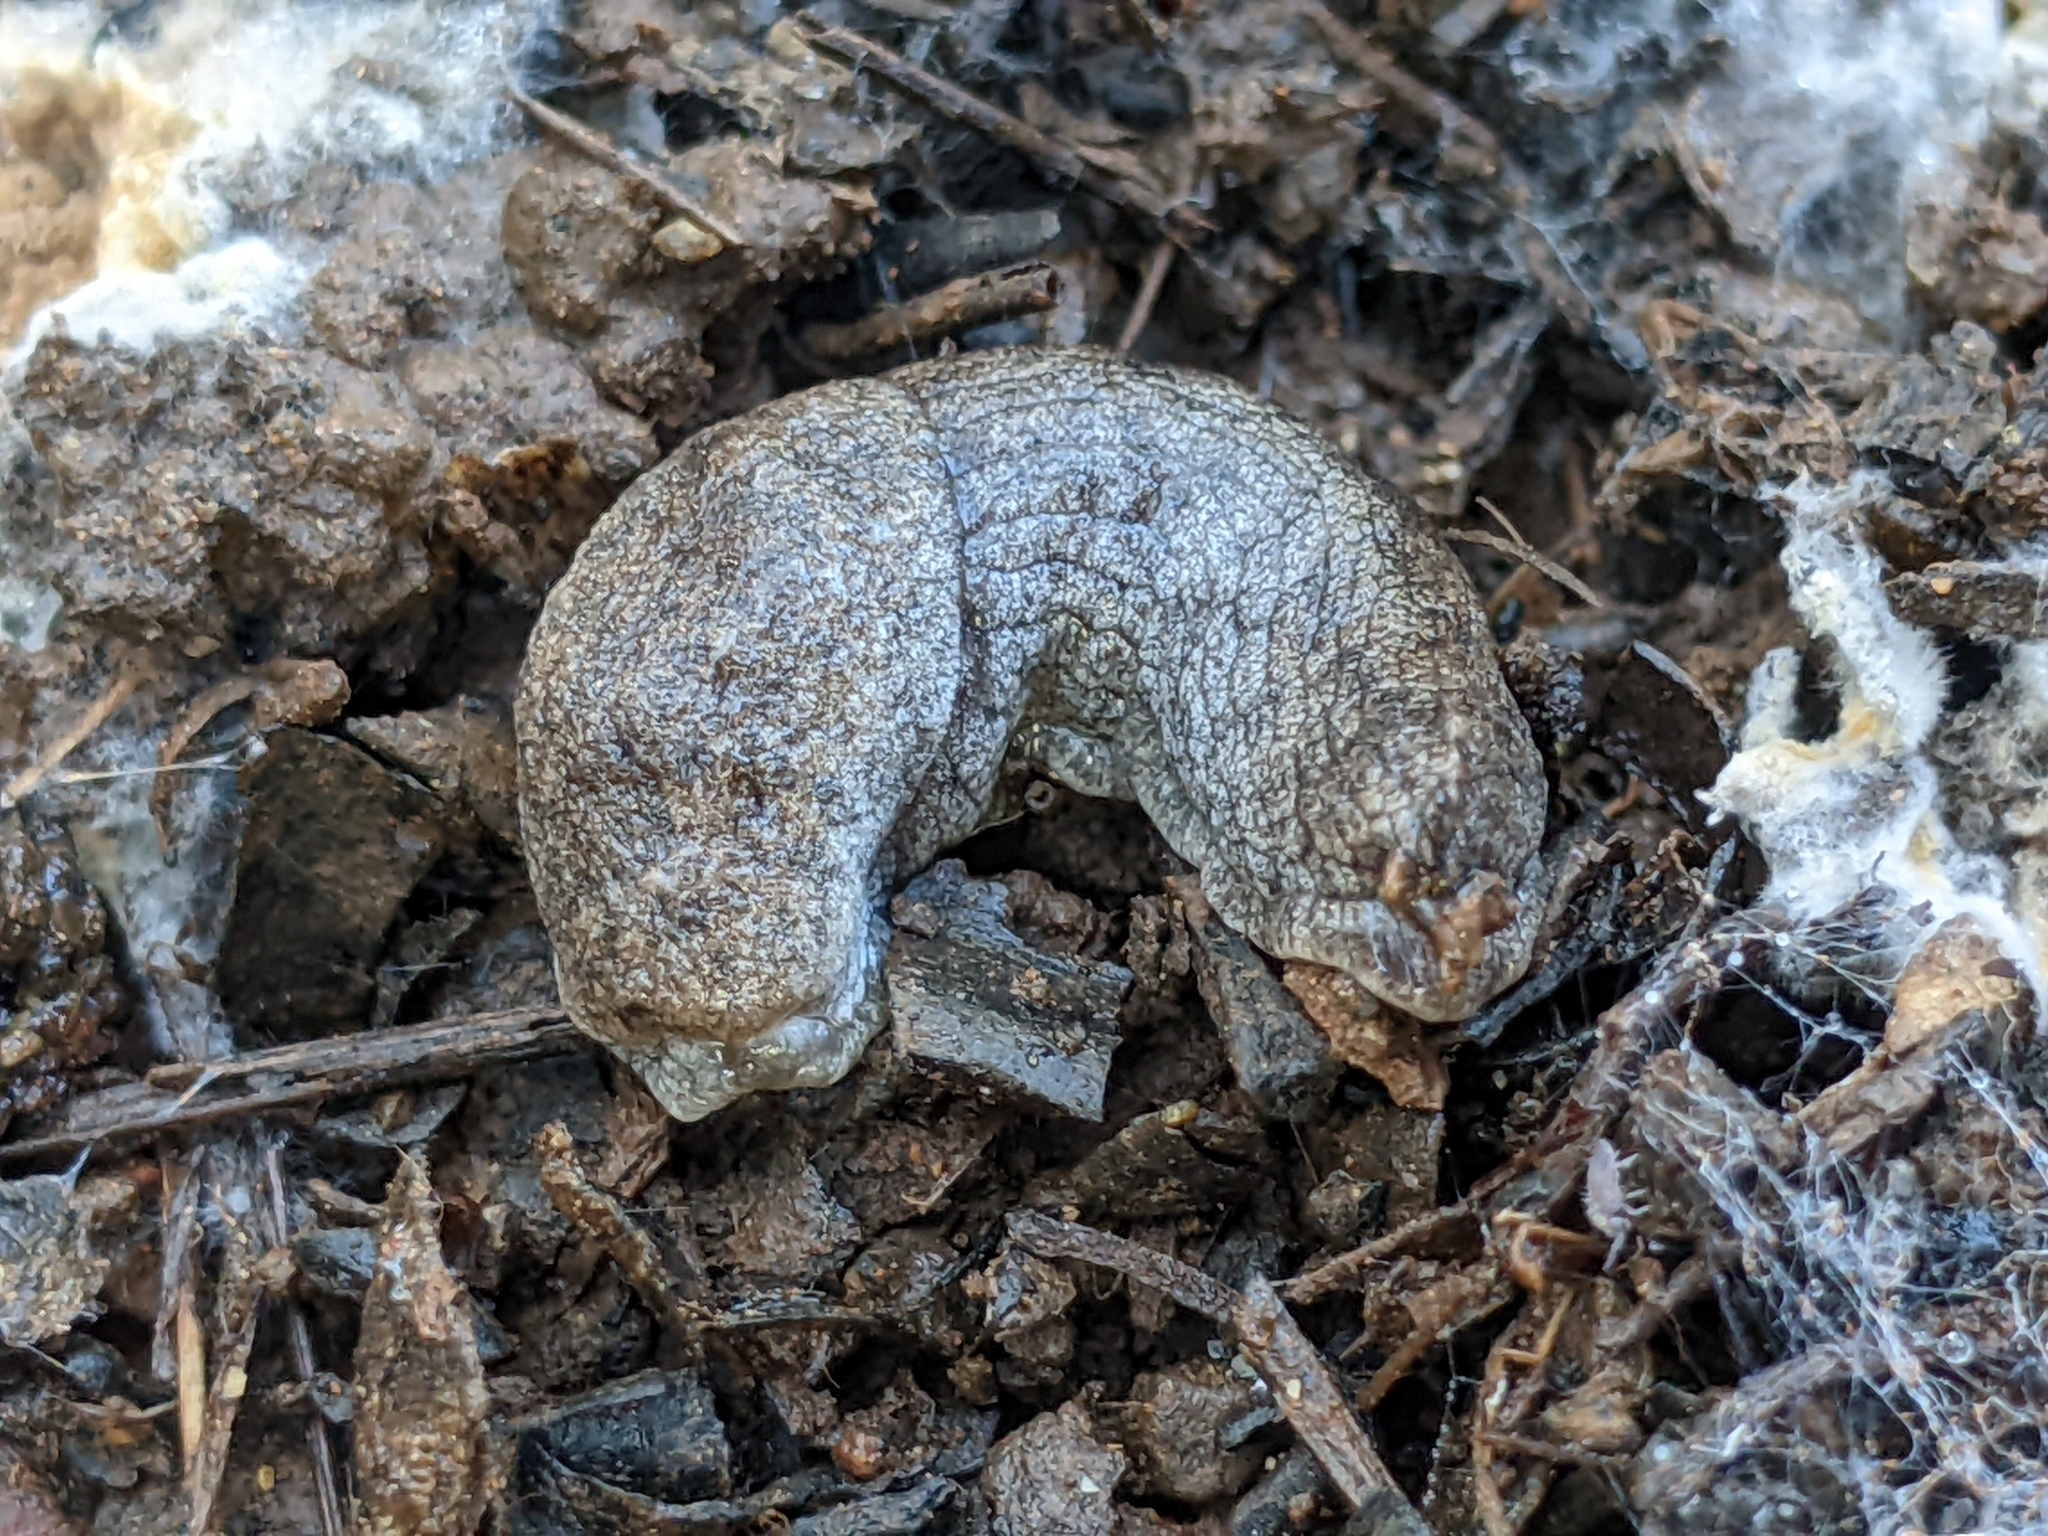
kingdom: Animalia
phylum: Mollusca
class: Gastropoda
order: Stylommatophora
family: Ariolimacidae
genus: Hesperarion
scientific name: Hesperarion niger
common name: Black western slug
